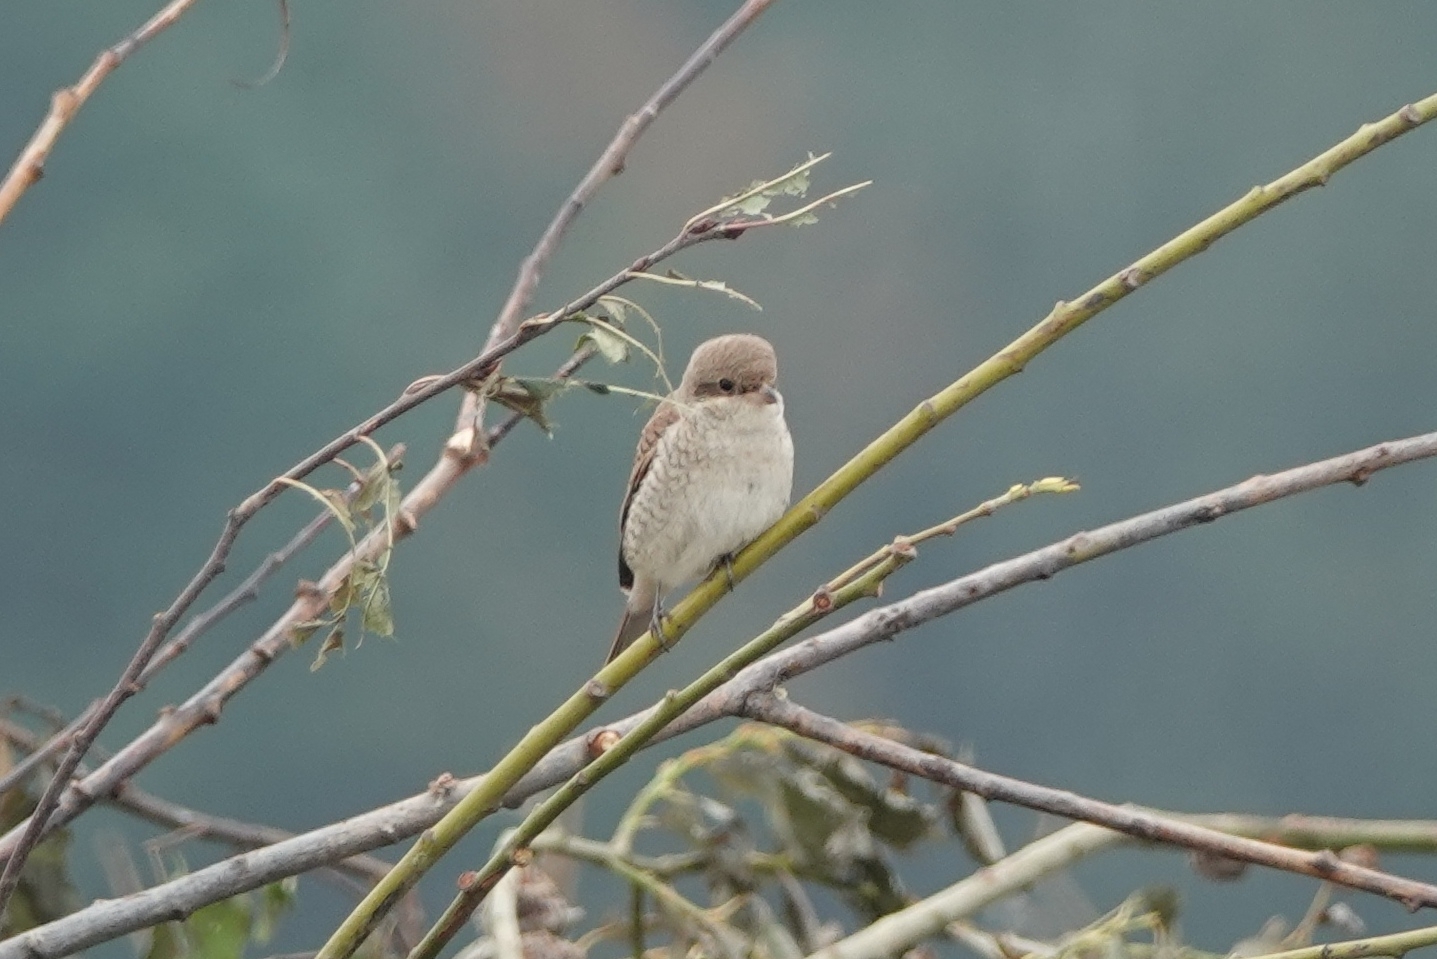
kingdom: Animalia
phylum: Chordata
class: Aves
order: Passeriformes
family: Laniidae
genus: Lanius
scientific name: Lanius collurio
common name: Red-backed shrike
